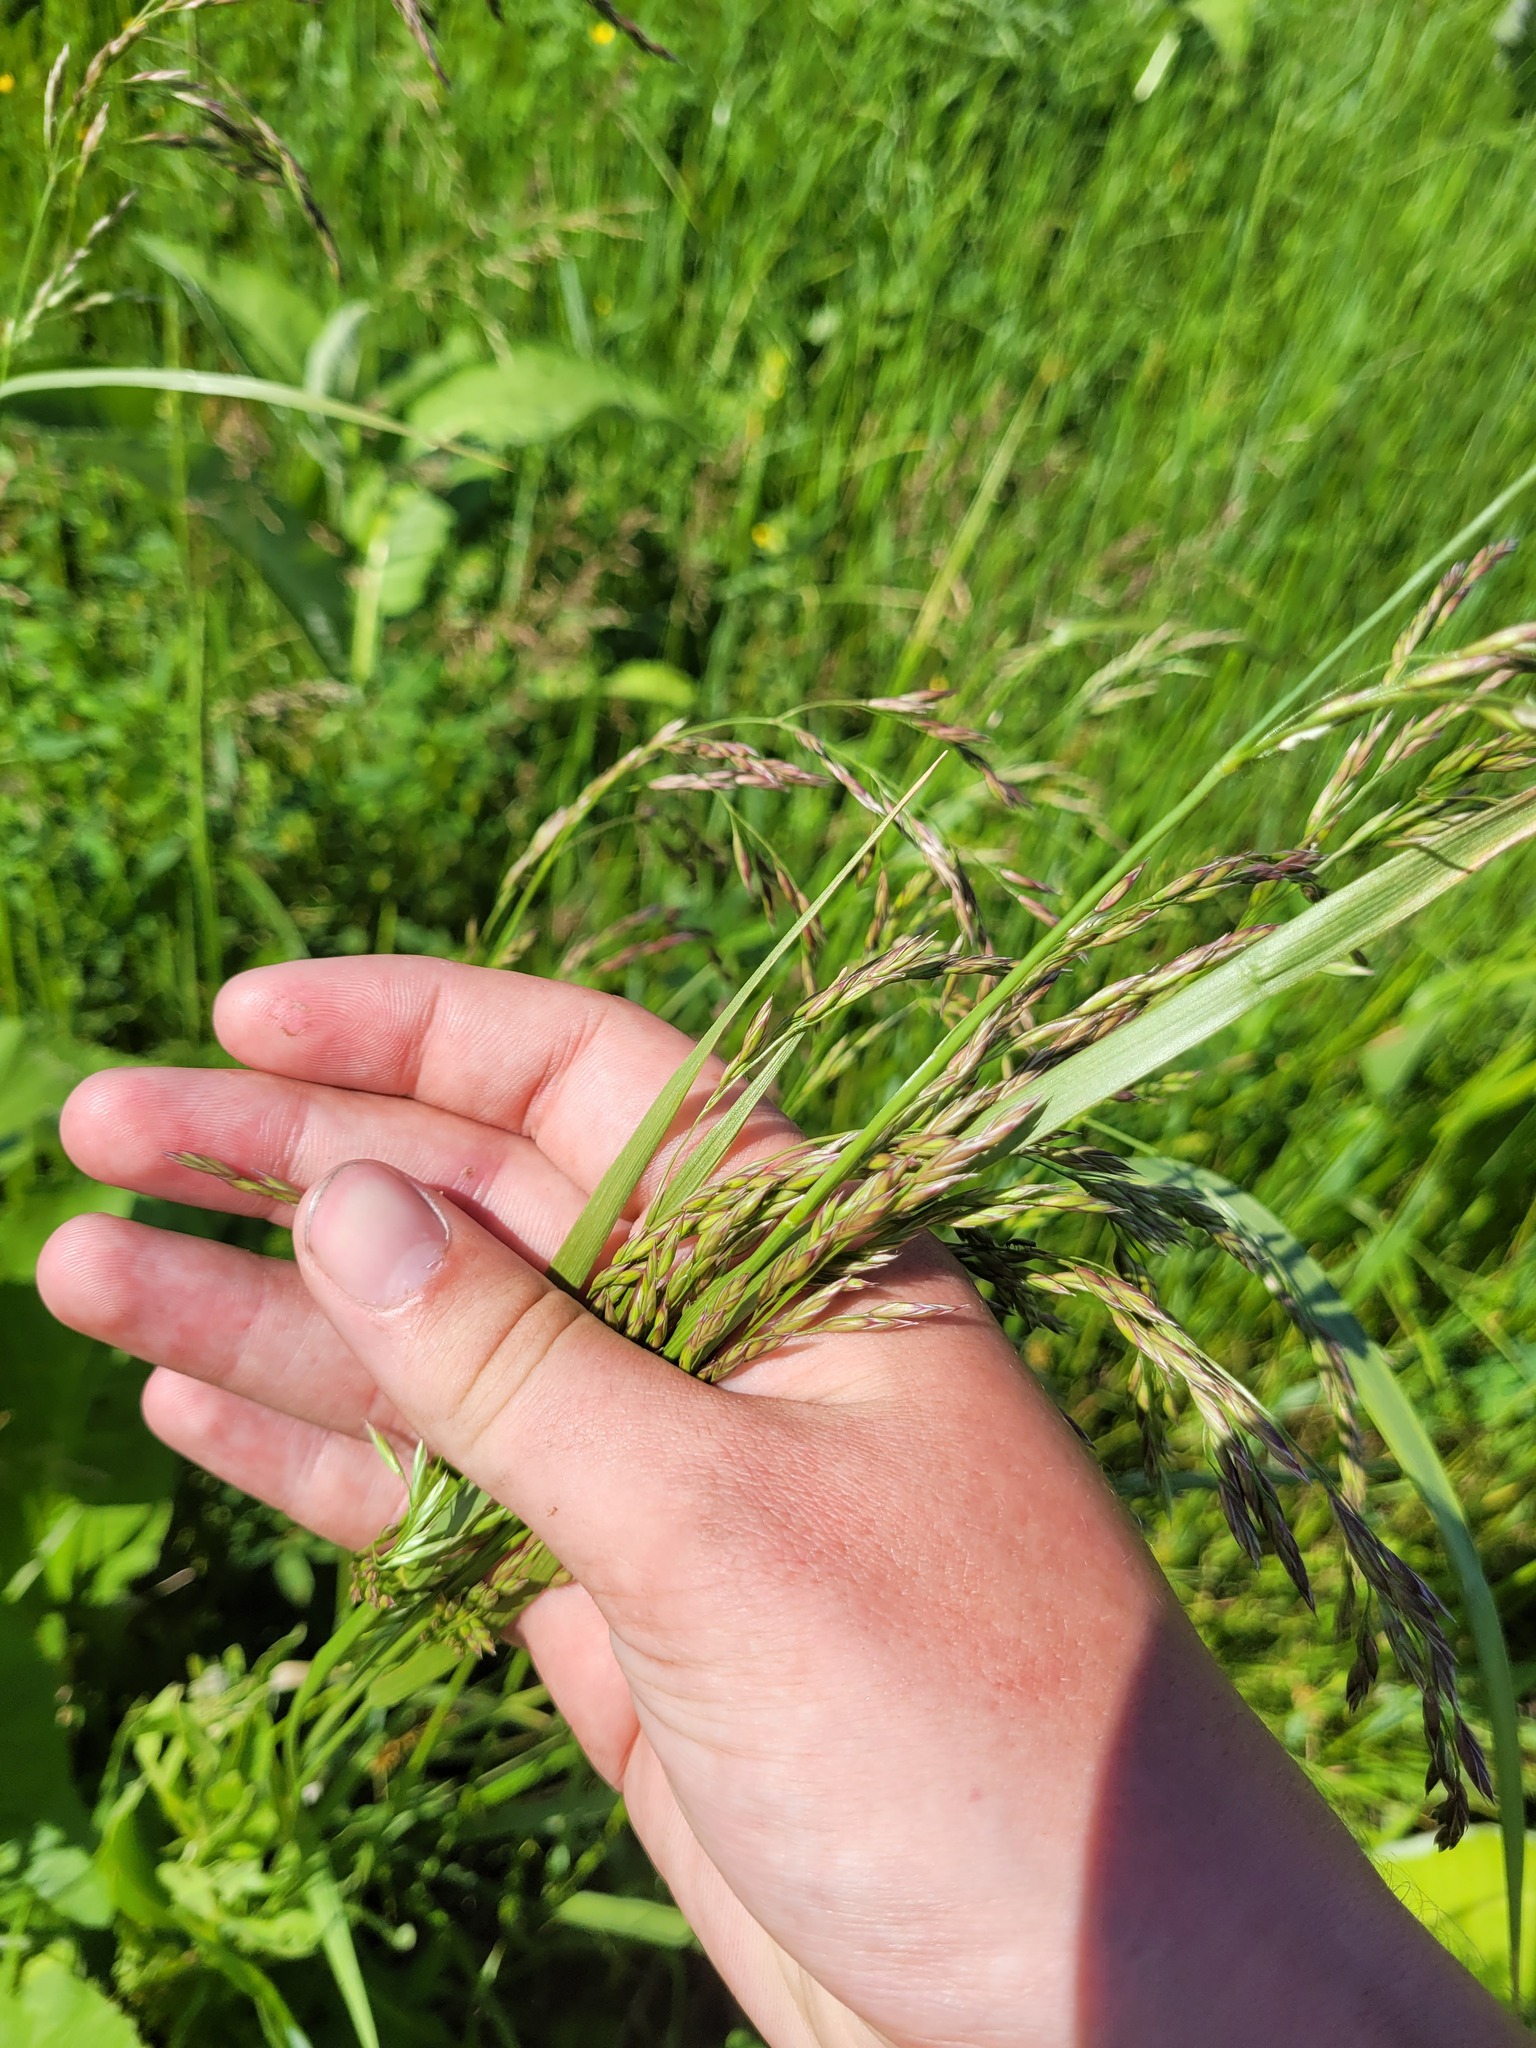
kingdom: Plantae
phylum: Tracheophyta
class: Liliopsida
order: Poales
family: Poaceae
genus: Lolium
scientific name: Lolium arundinaceum
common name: Reed fescue
